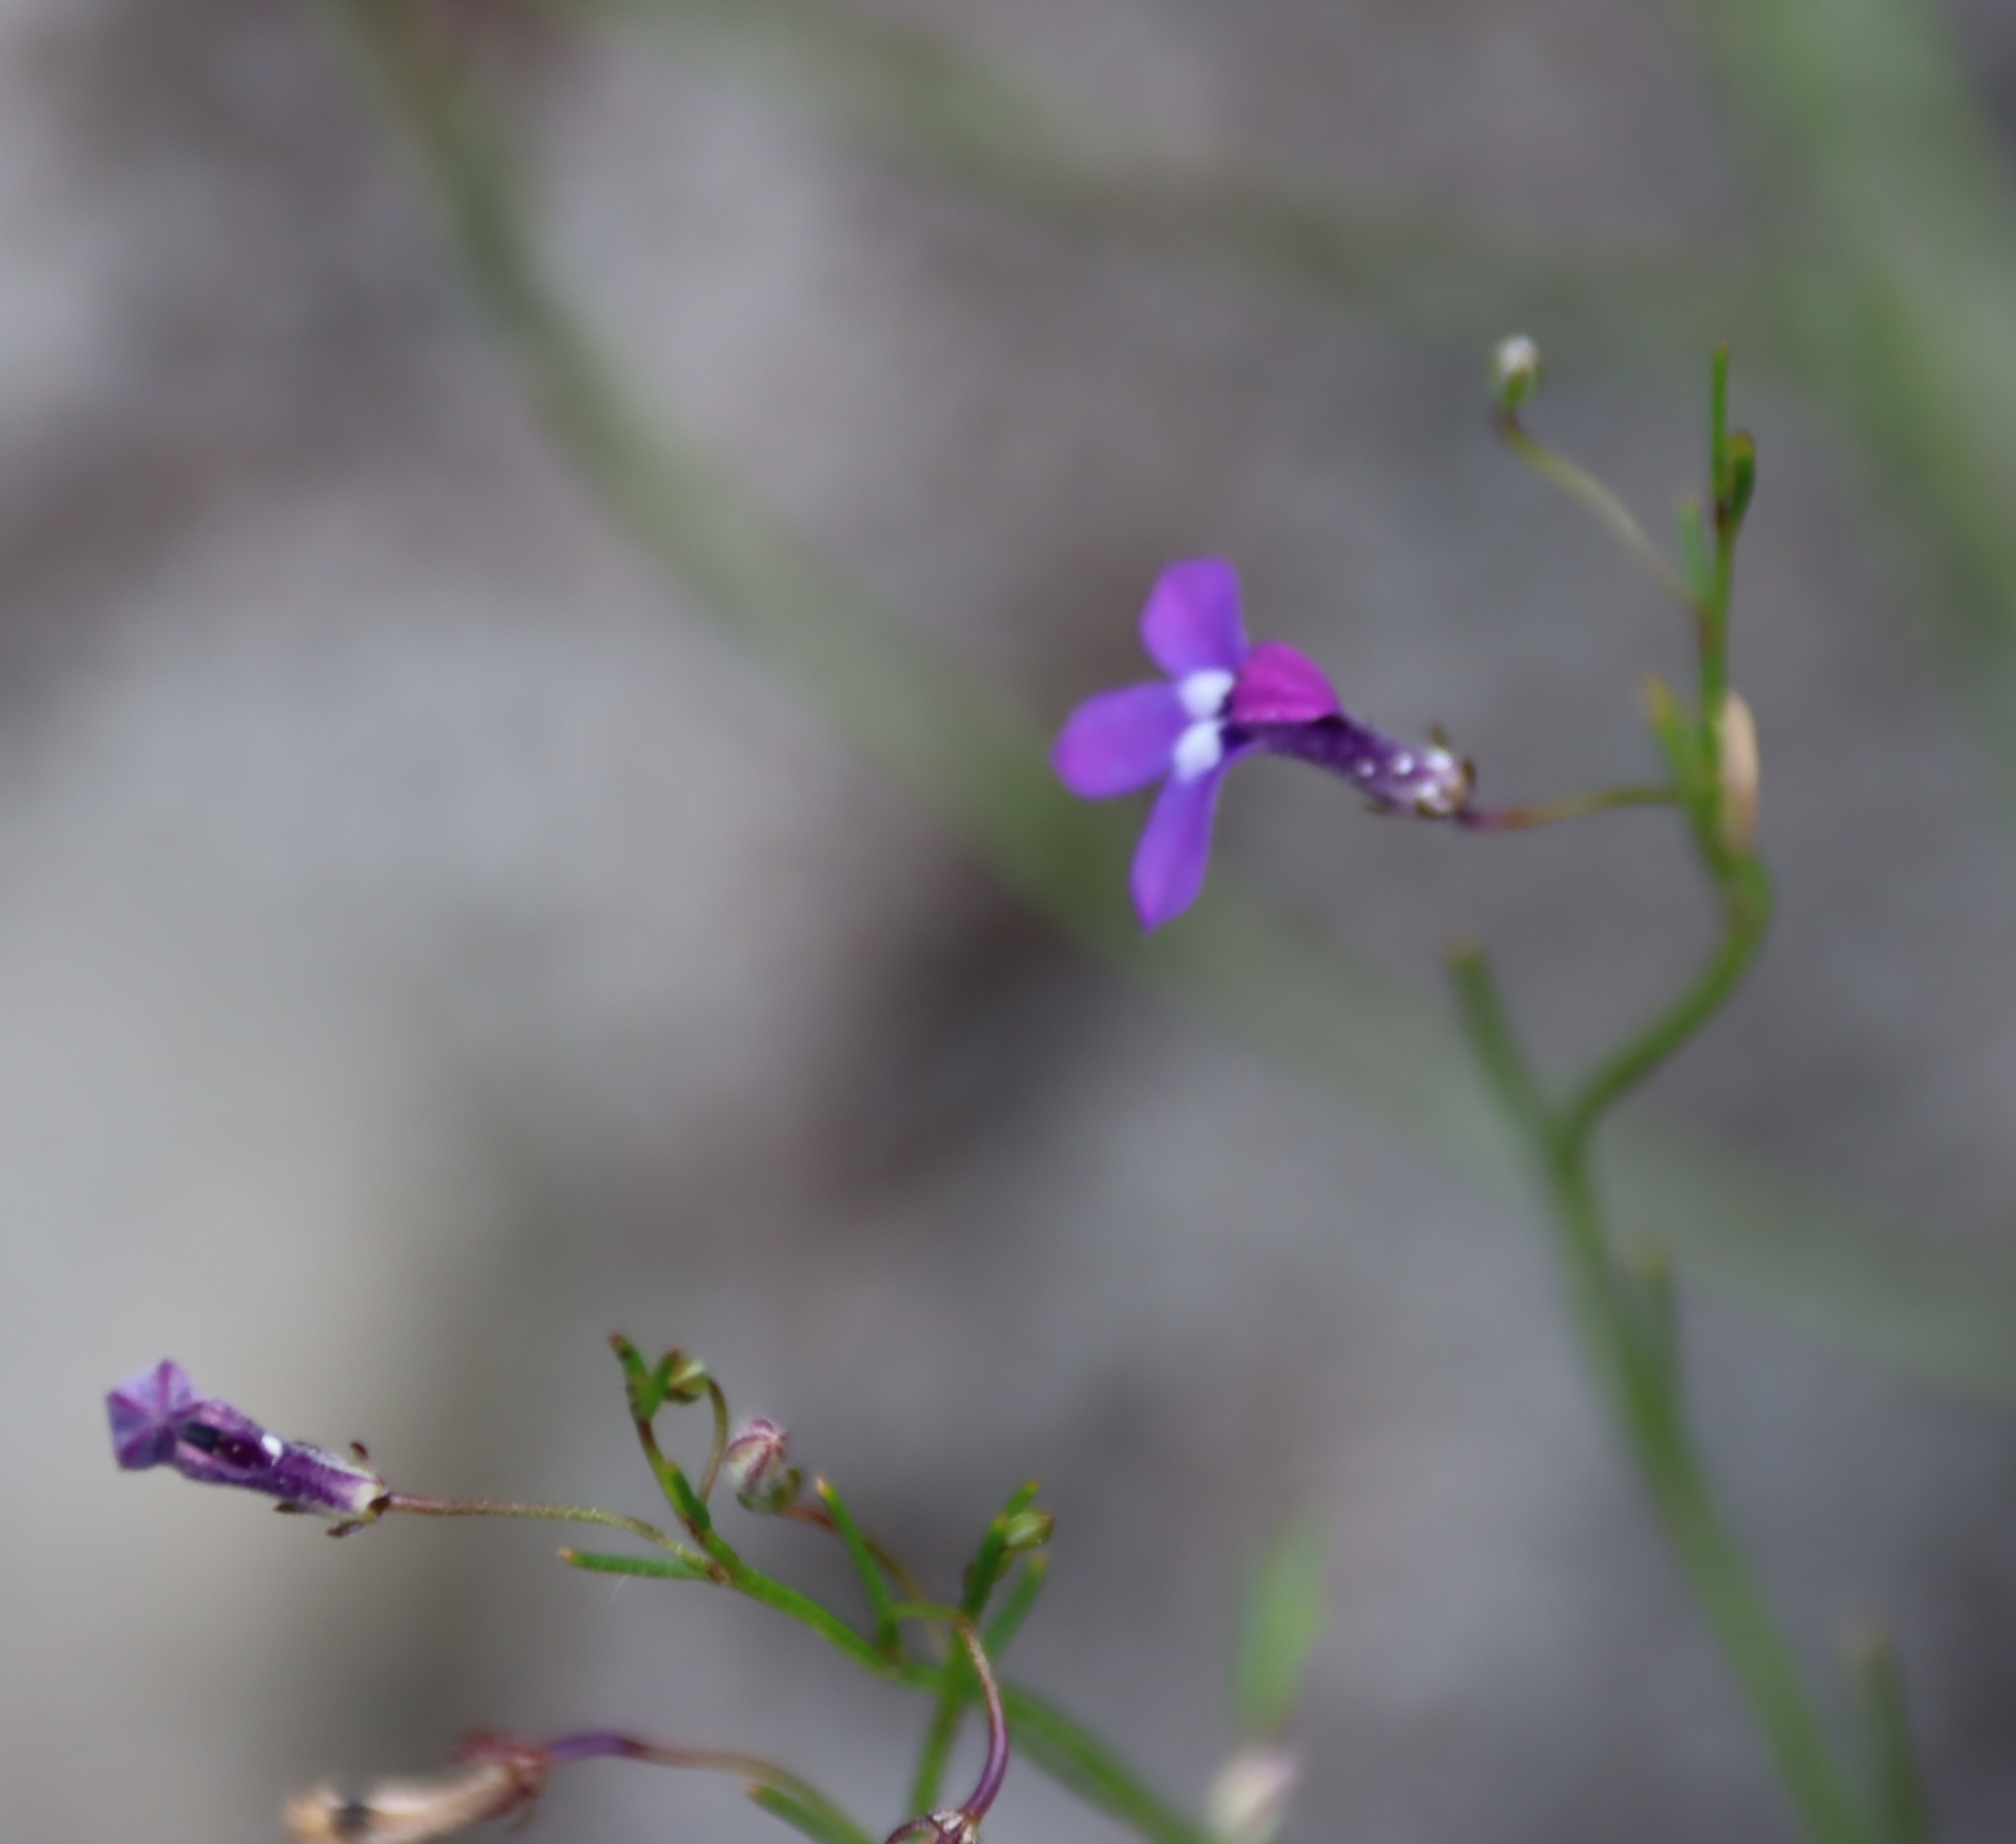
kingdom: Plantae
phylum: Tracheophyta
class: Magnoliopsida
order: Asterales
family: Campanulaceae
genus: Lobelia
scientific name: Lobelia setacea
